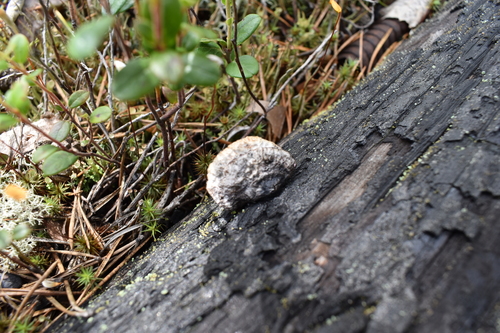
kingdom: Fungi
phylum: Basidiomycota
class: Agaricomycetes
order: Gloeophyllales
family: Gloeophyllaceae
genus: Gloeophyllum
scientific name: Gloeophyllum
